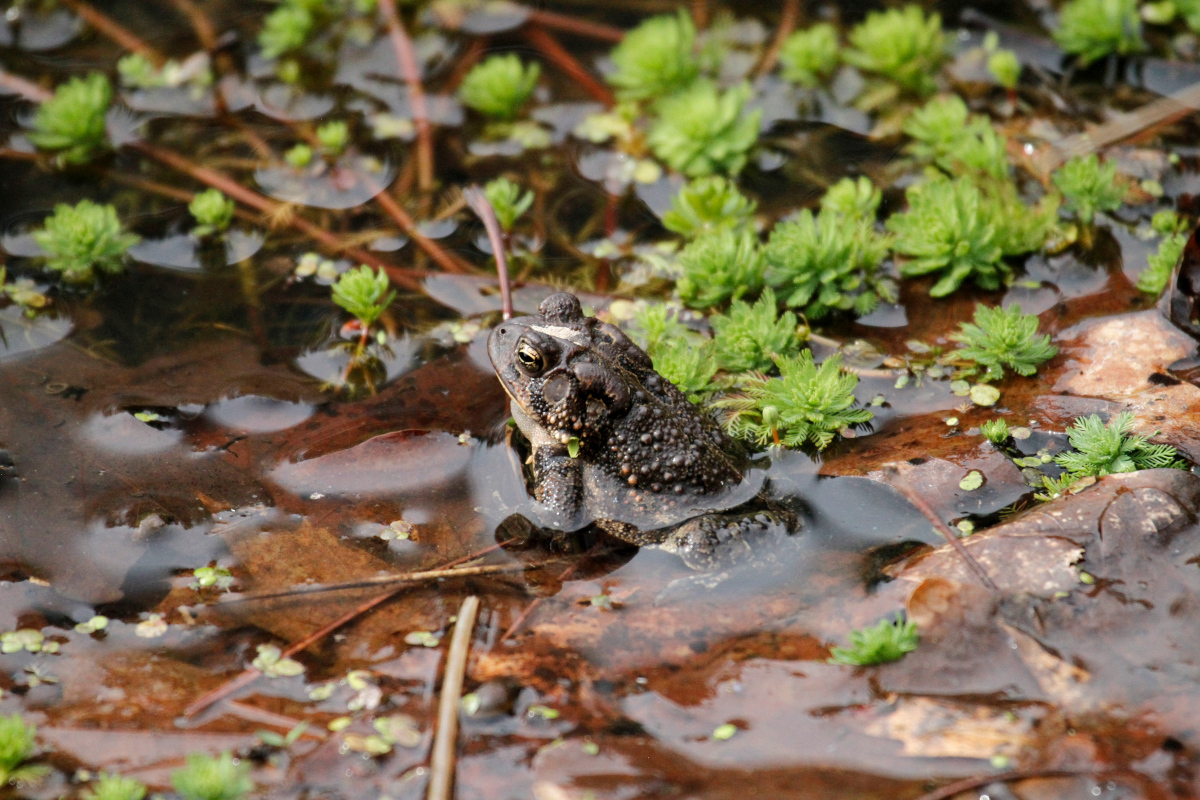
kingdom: Animalia
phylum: Chordata
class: Amphibia
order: Anura
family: Bufonidae
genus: Anaxyrus
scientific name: Anaxyrus americanus
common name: American toad
